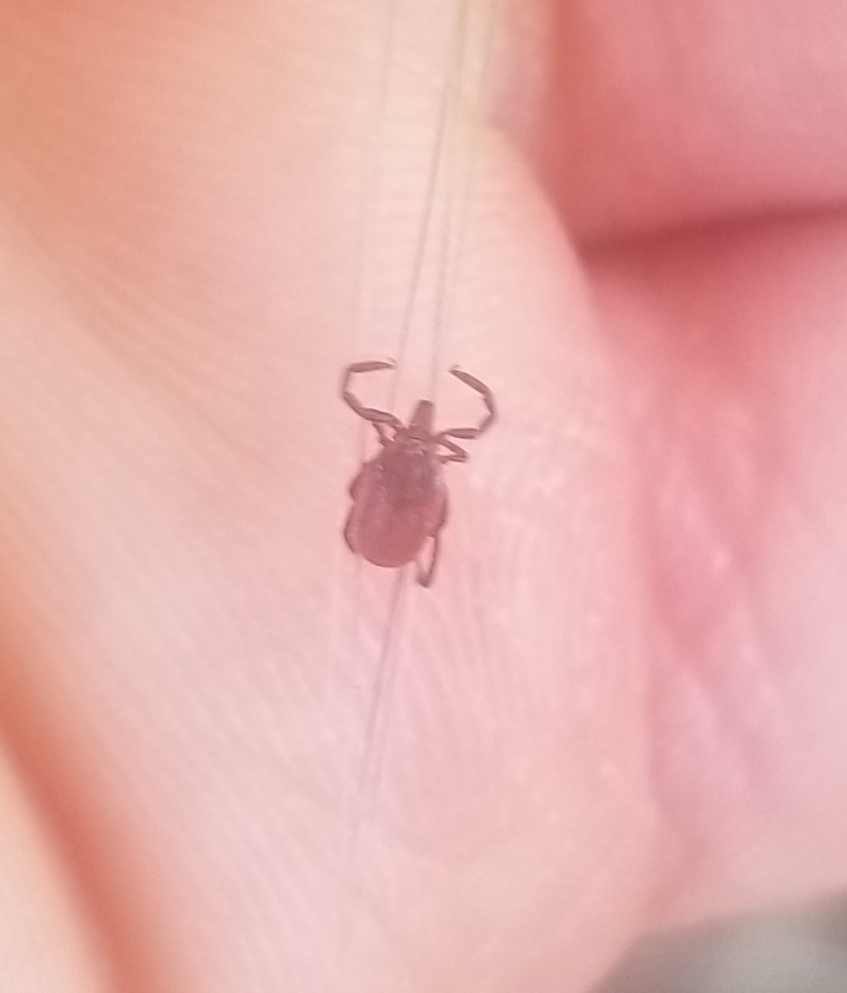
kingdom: Animalia
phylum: Arthropoda
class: Arachnida
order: Ixodida
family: Ixodidae
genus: Ixodes
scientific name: Ixodes pacificus
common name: California black-legged tick
